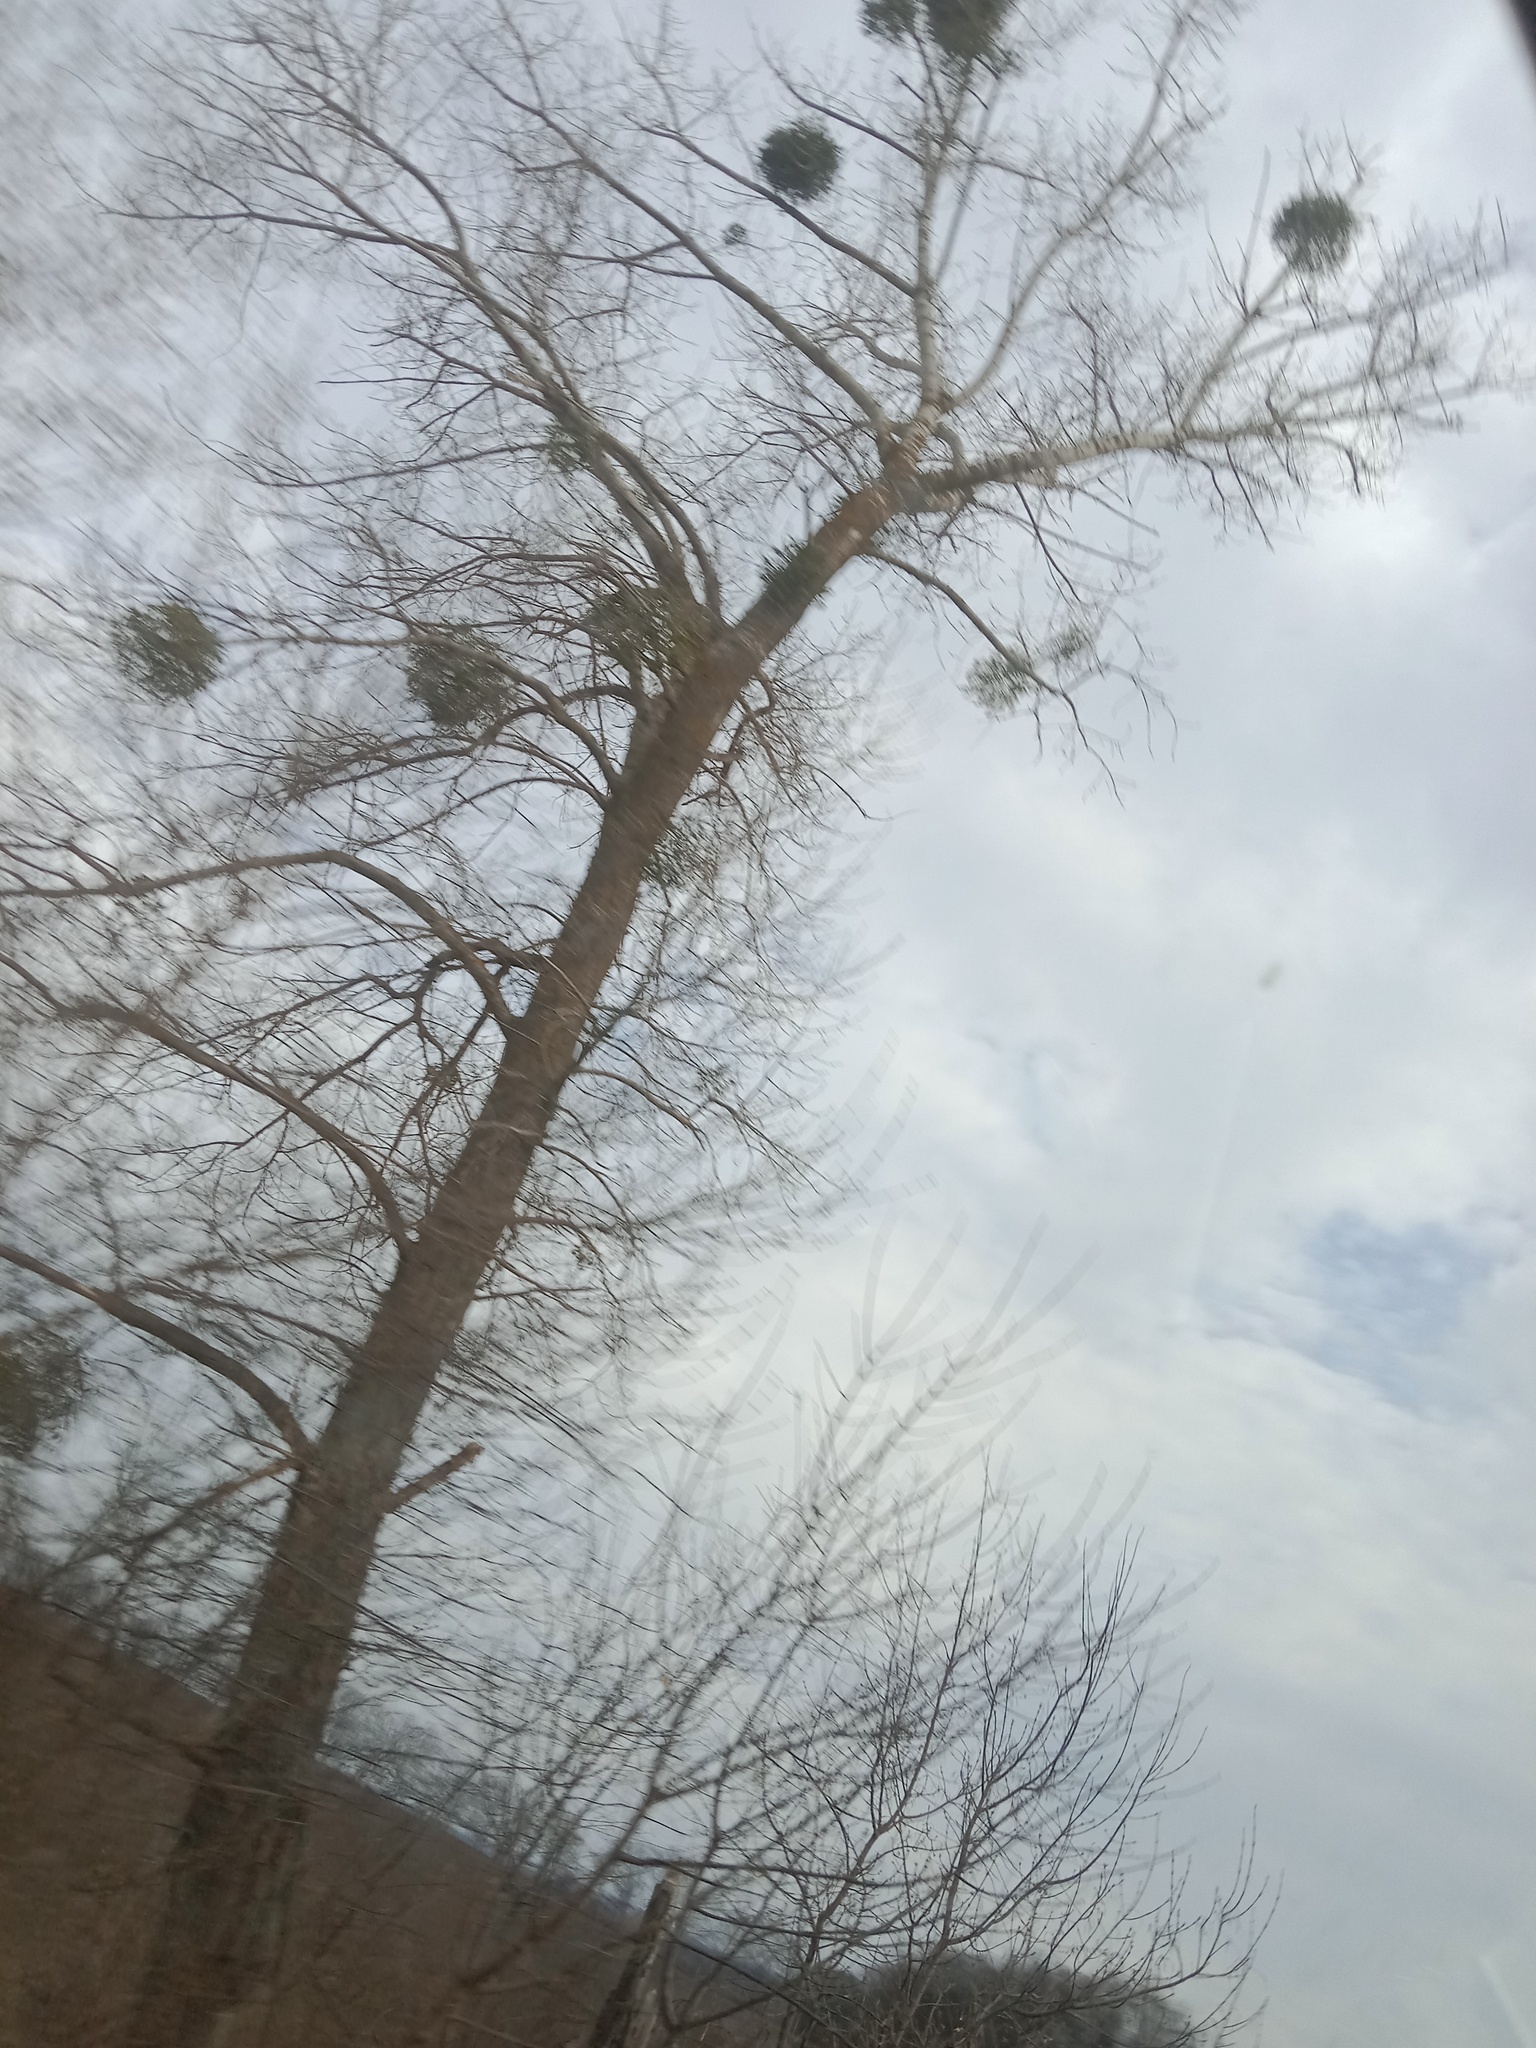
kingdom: Plantae
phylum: Tracheophyta
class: Magnoliopsida
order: Santalales
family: Viscaceae
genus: Viscum
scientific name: Viscum album
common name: Mistletoe
